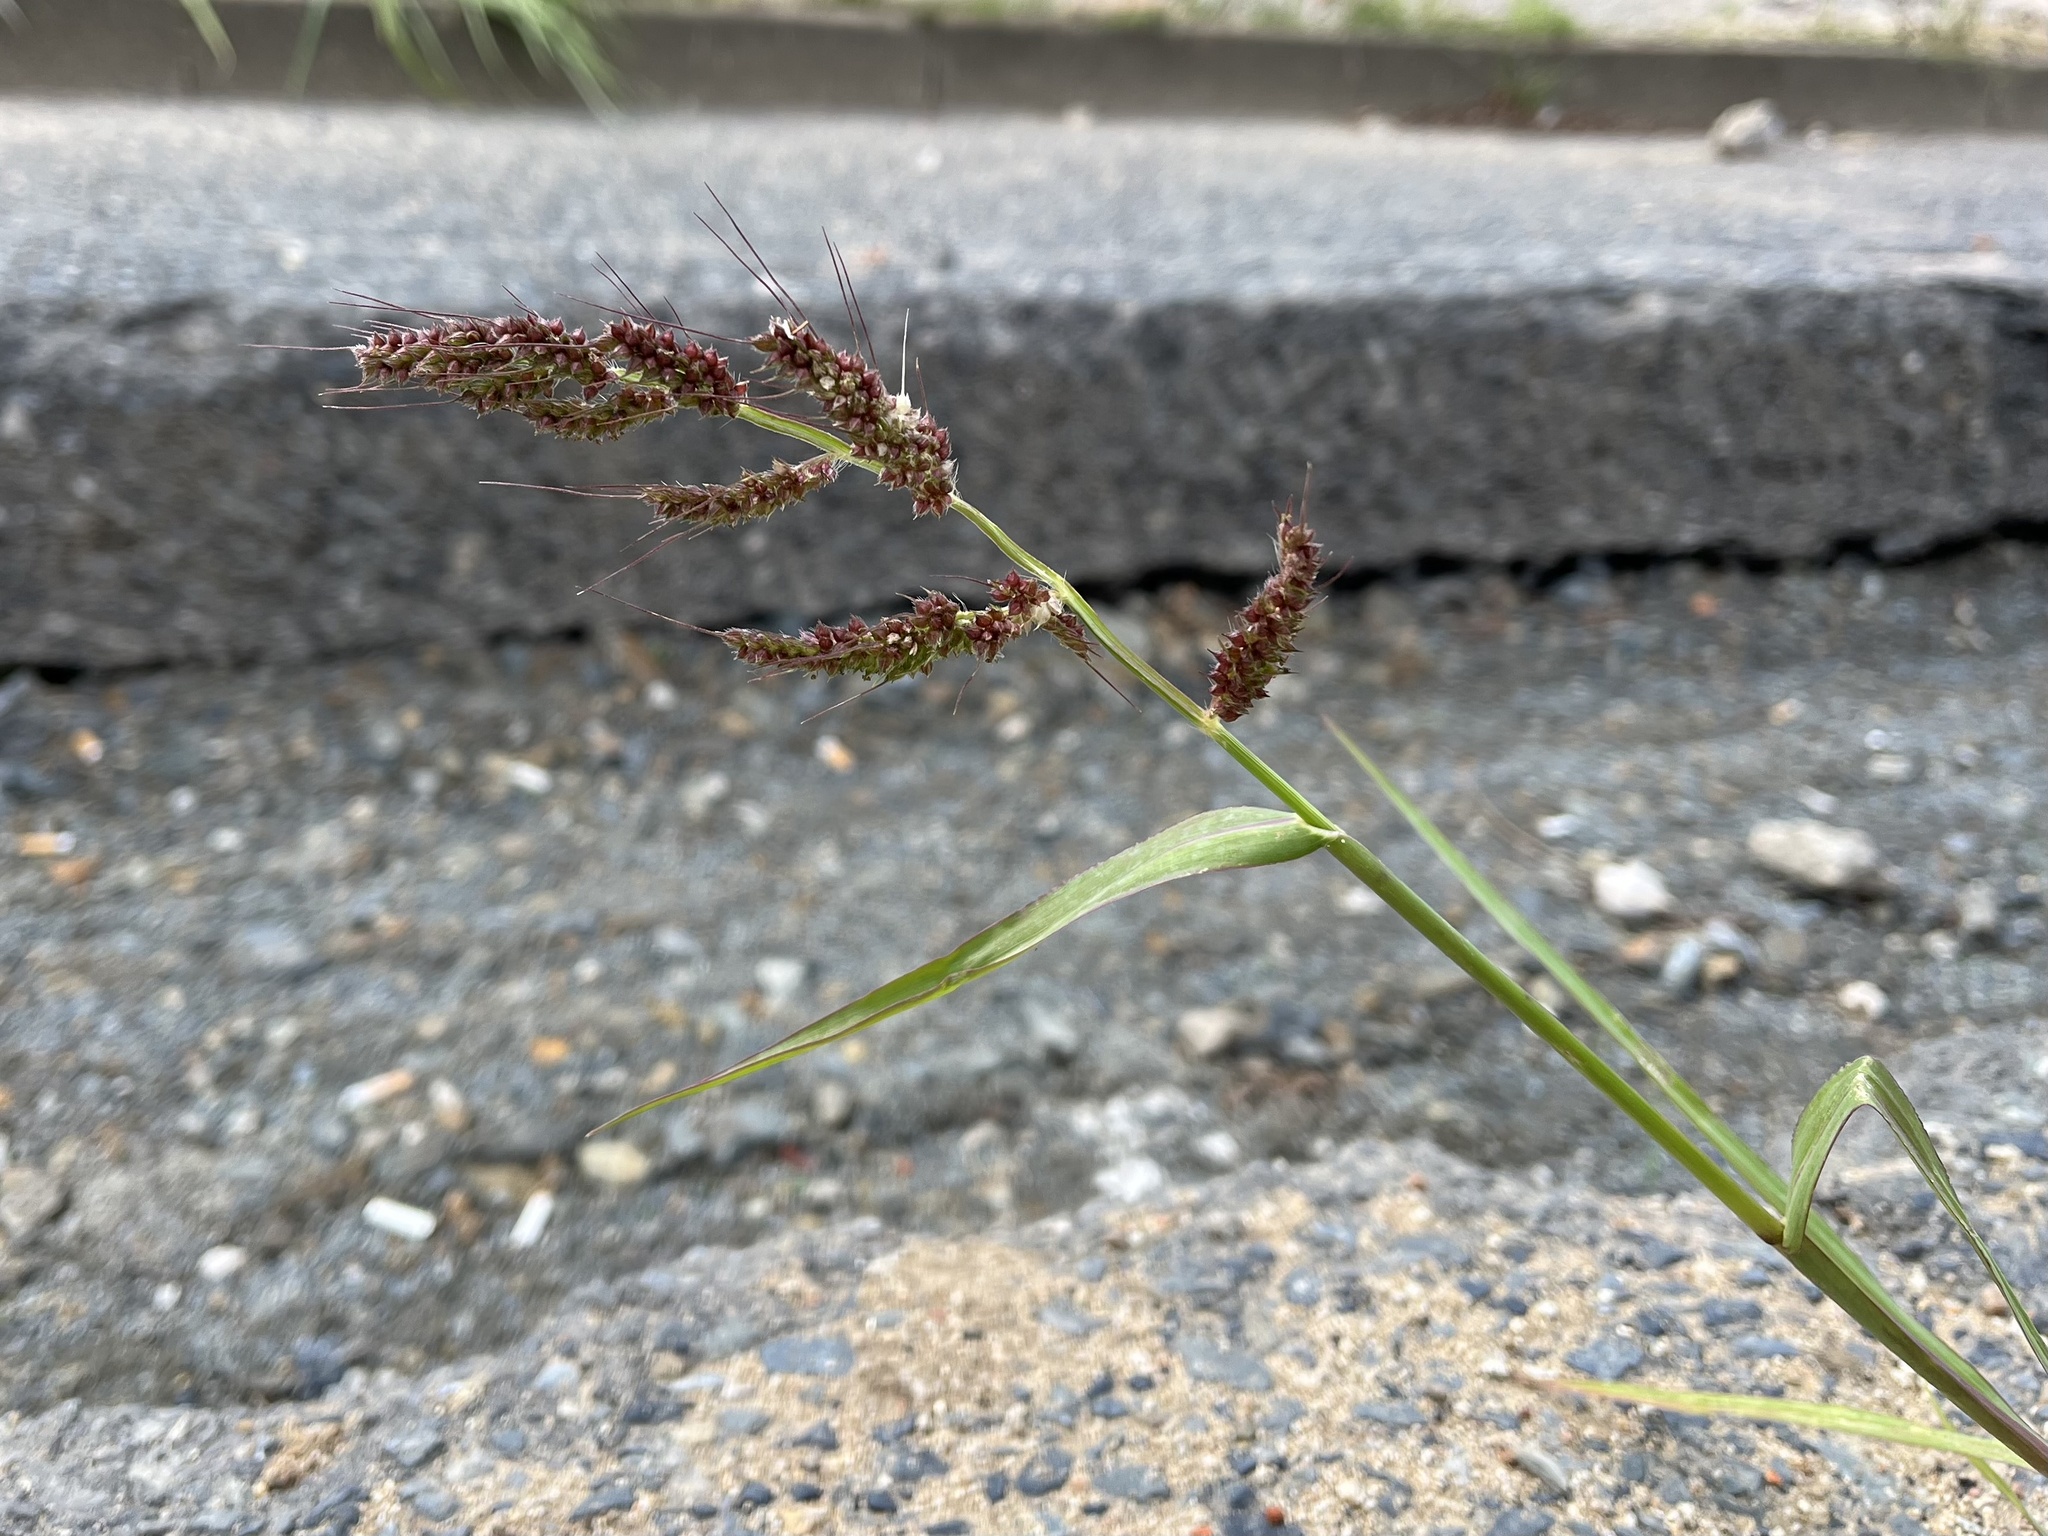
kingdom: Plantae
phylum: Tracheophyta
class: Liliopsida
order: Poales
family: Poaceae
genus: Echinochloa
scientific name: Echinochloa crus-galli
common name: Cockspur
